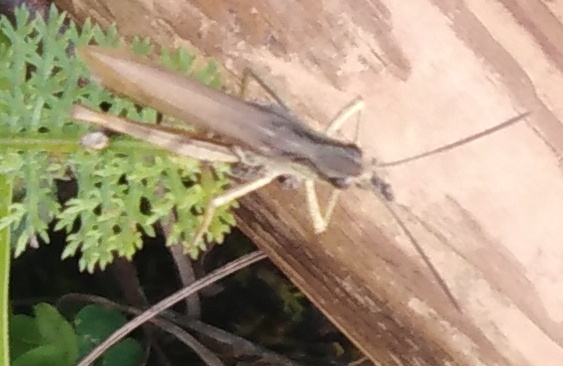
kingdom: Animalia
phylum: Arthropoda
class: Insecta
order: Orthoptera
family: Acrididae
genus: Chorthippus
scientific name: Chorthippus apricarius
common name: Upland field grasshopper
